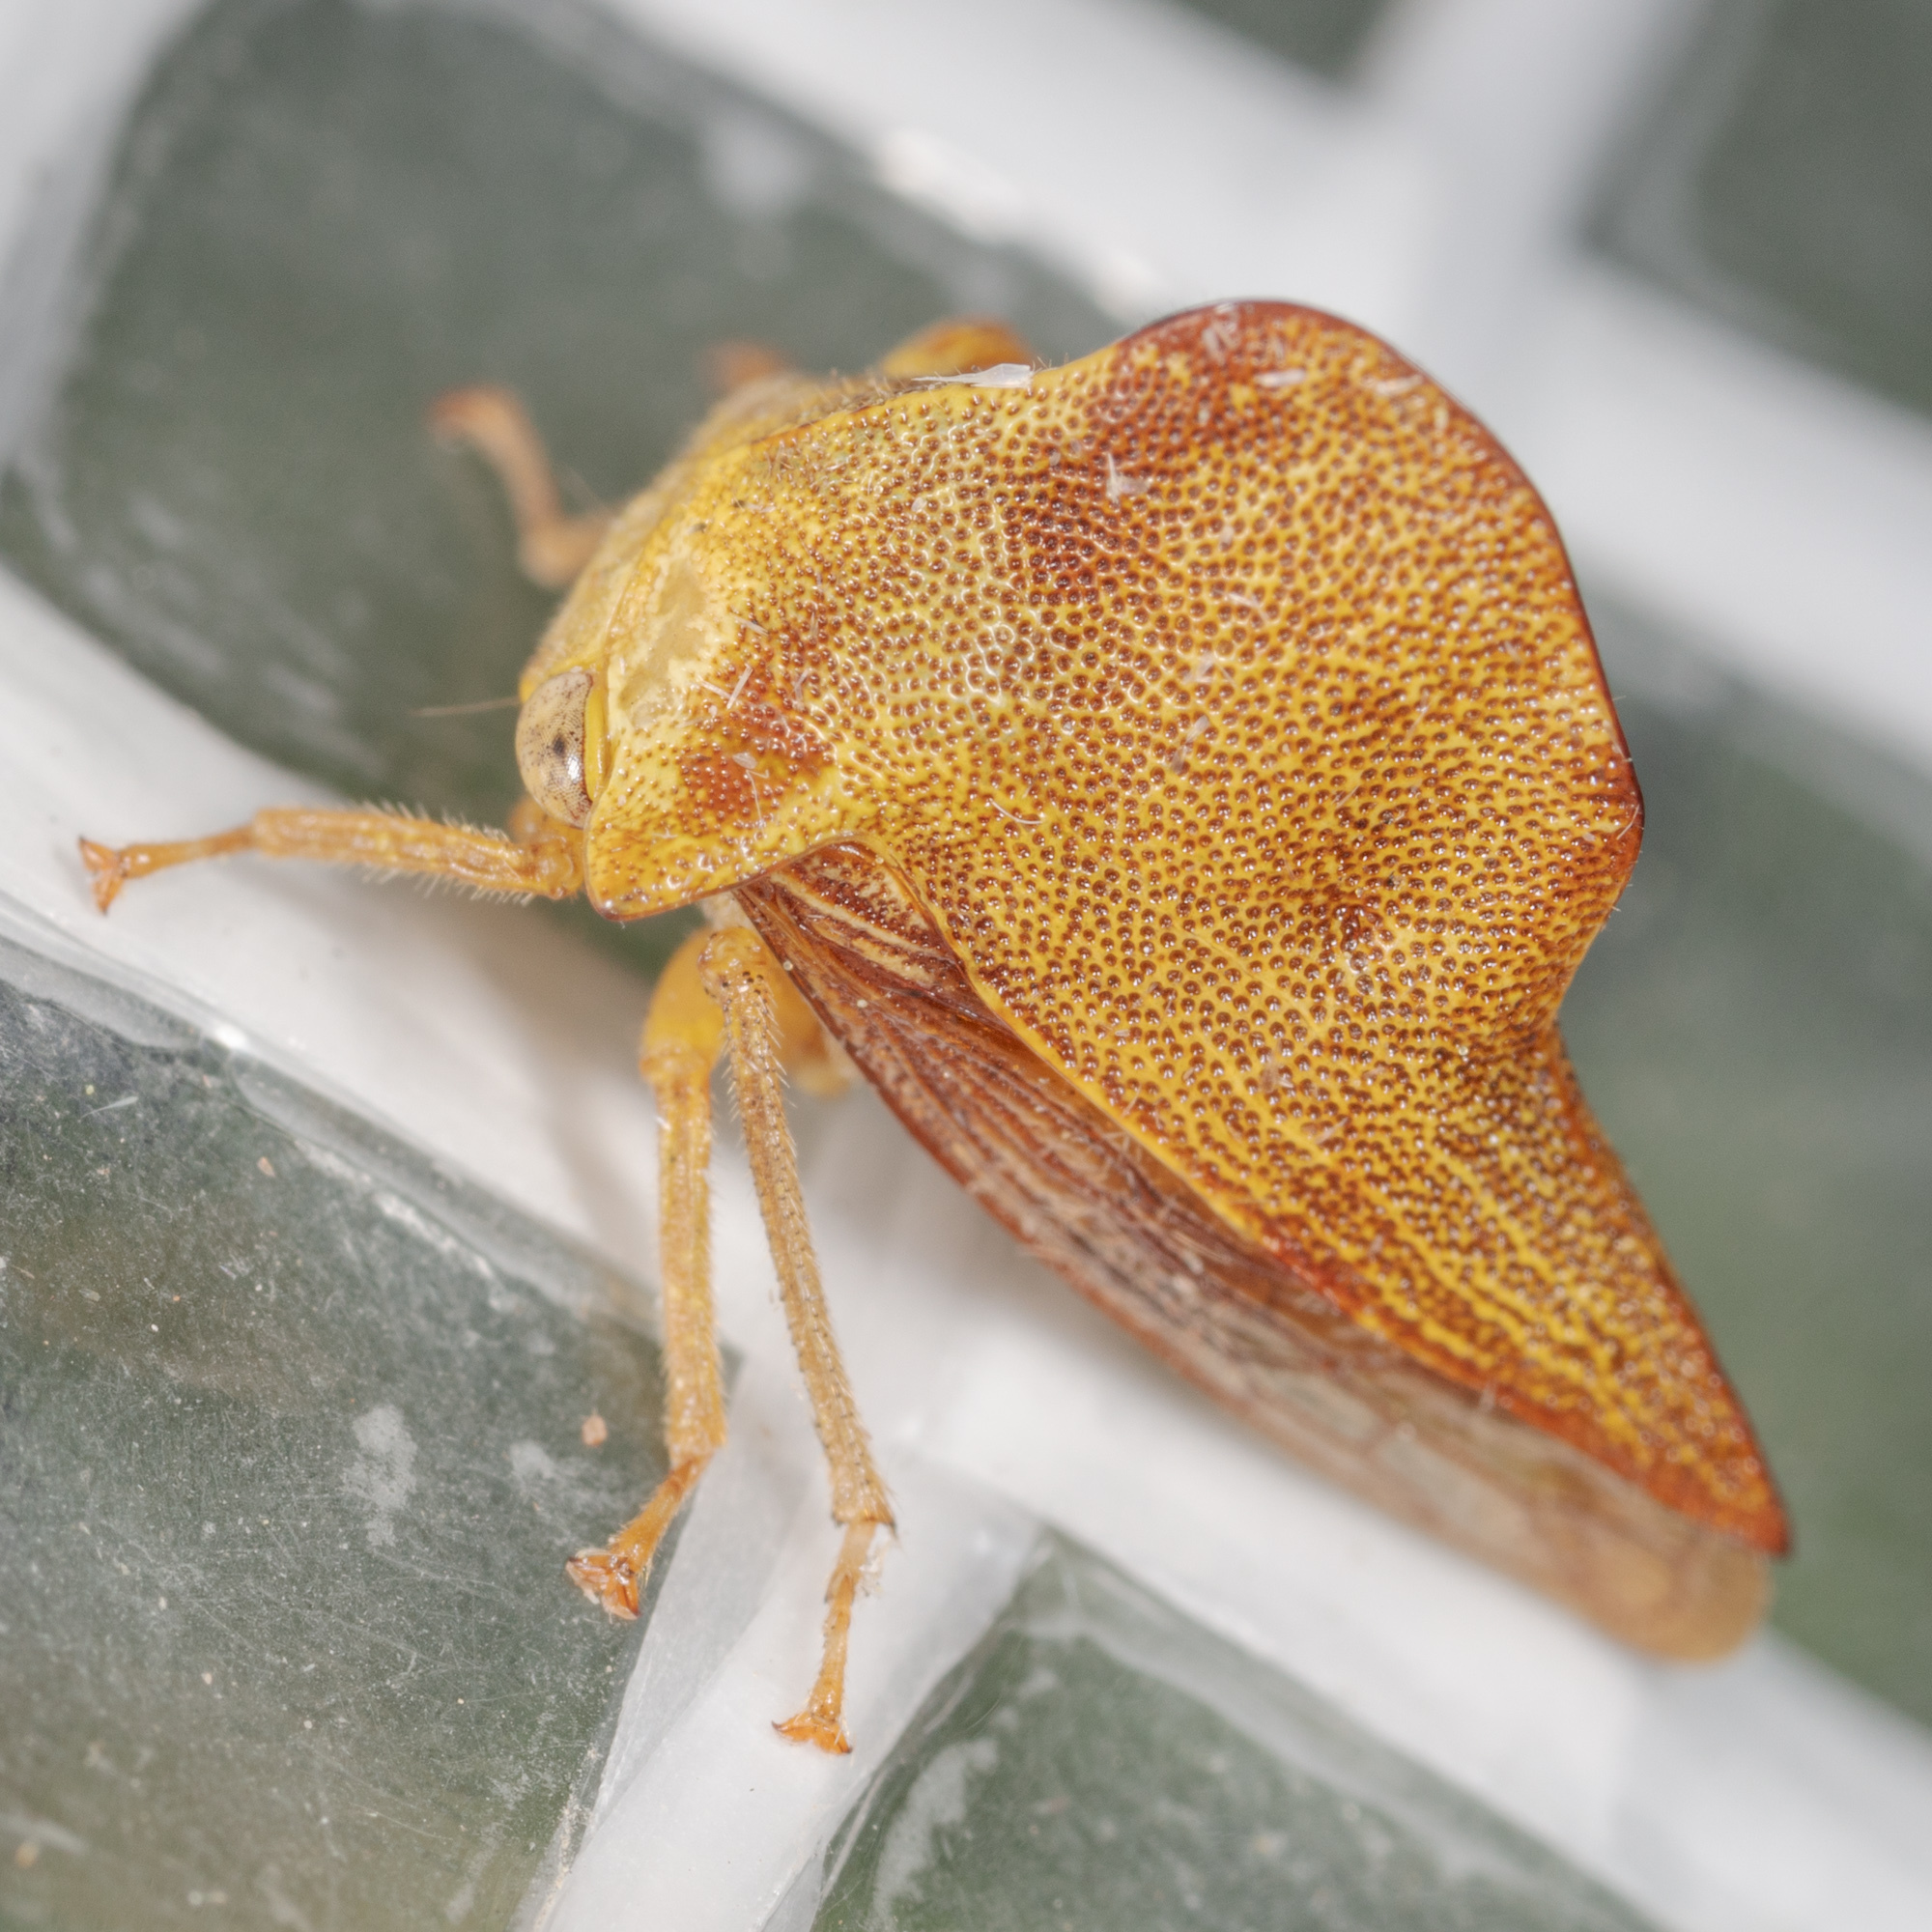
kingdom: Animalia
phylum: Arthropoda
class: Insecta
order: Hemiptera
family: Membracidae
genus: Telamona
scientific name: Telamona collina
